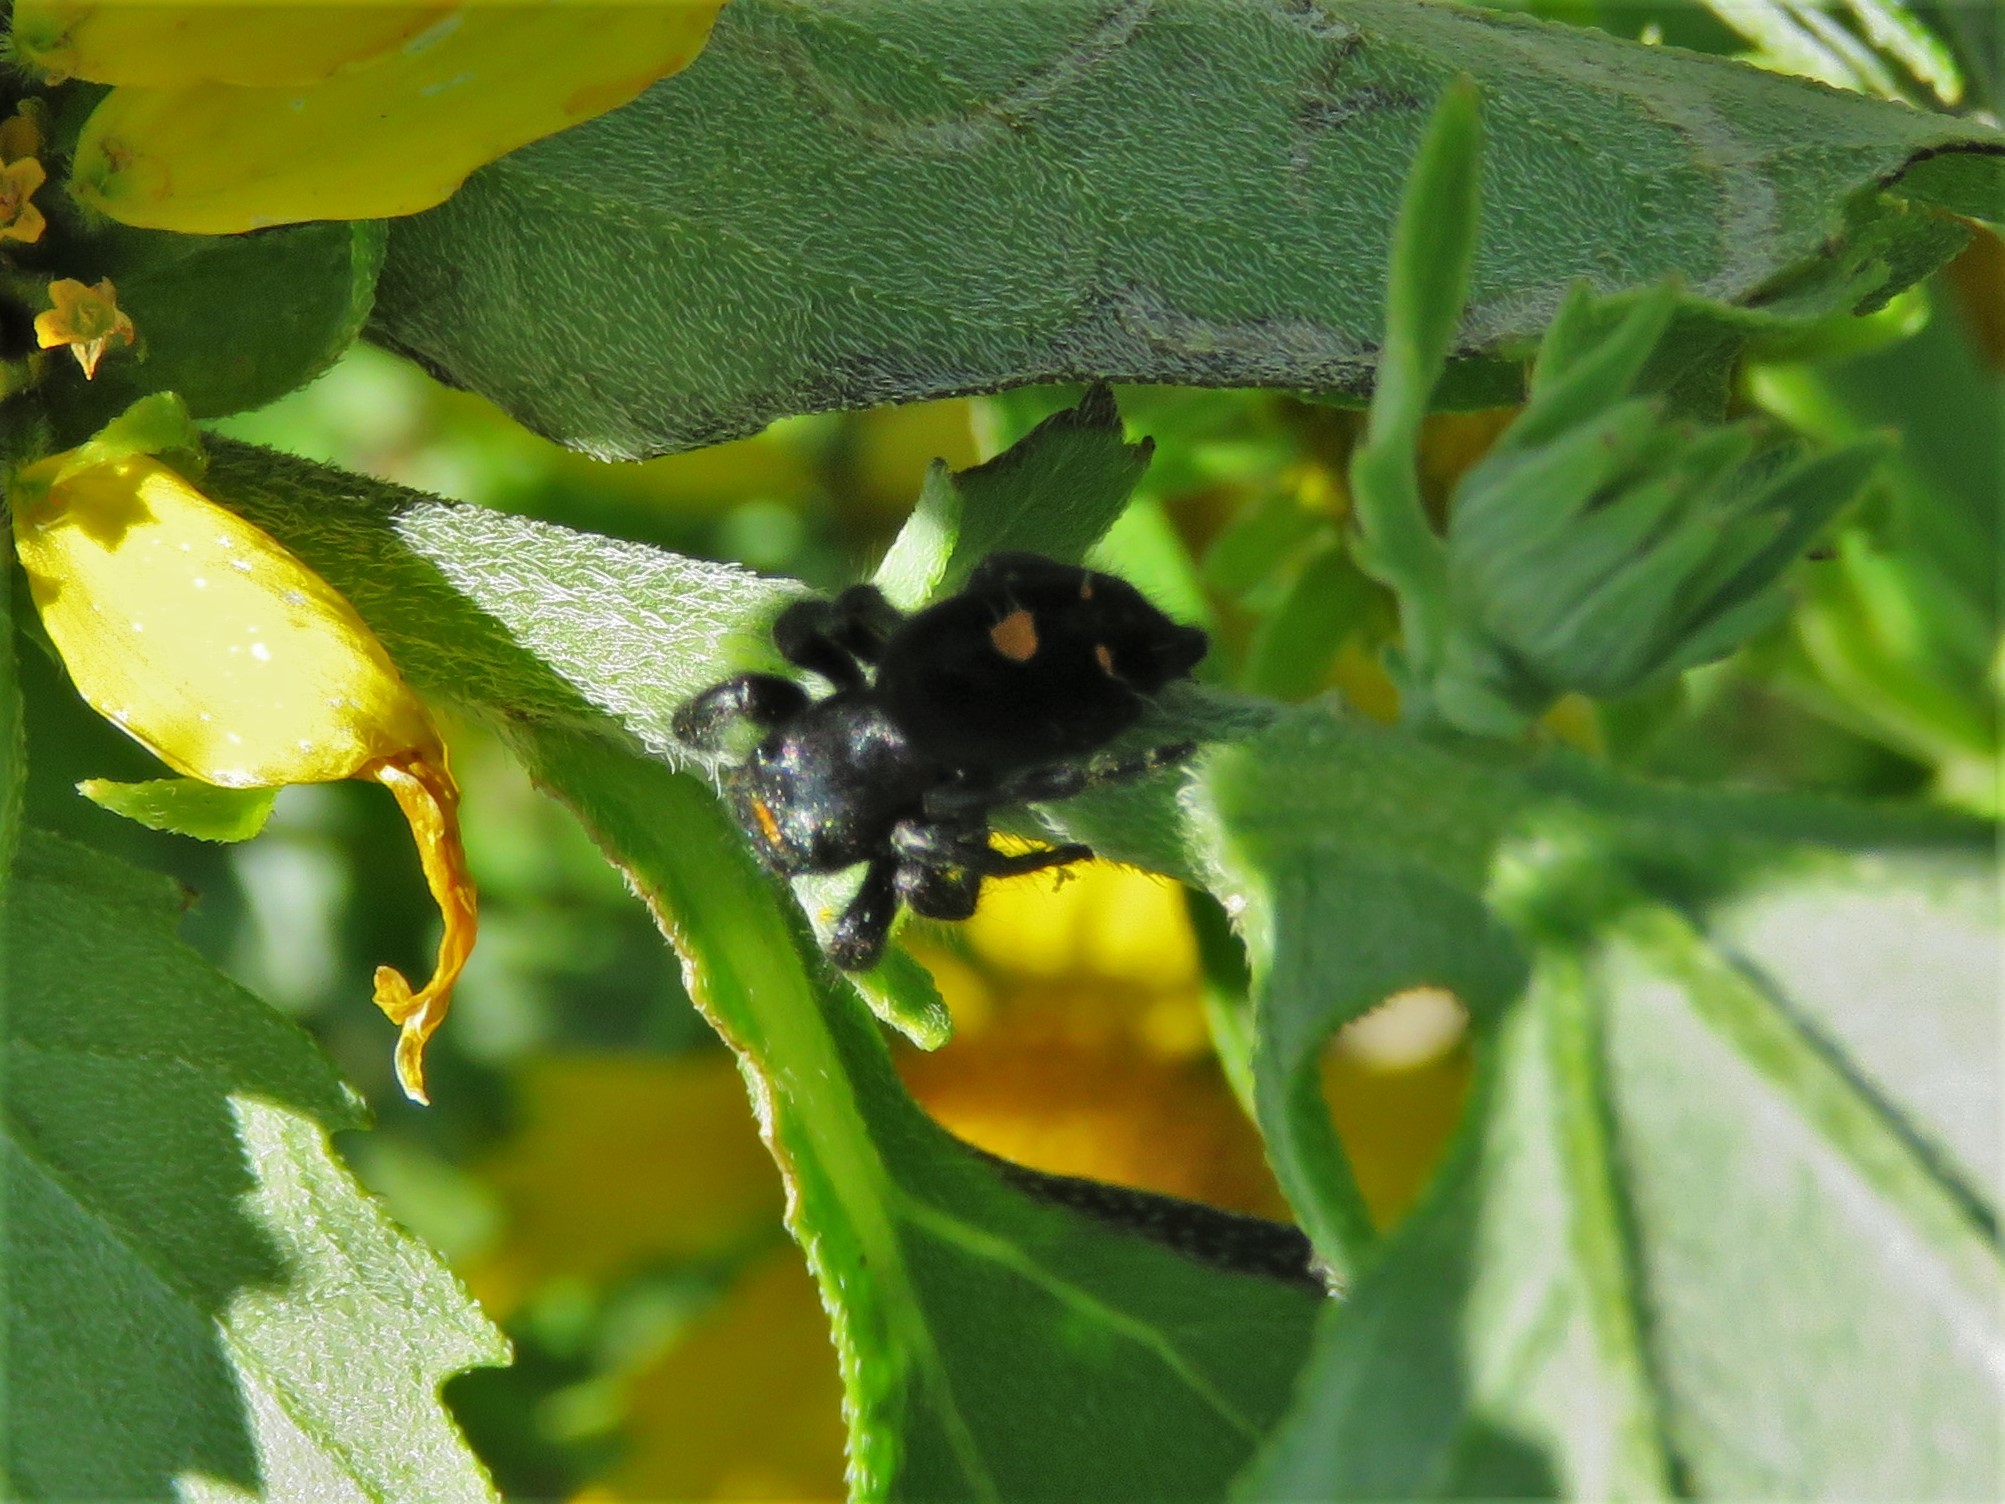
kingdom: Animalia
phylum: Arthropoda
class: Arachnida
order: Araneae
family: Salticidae
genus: Phidippus
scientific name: Phidippus audax
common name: Bold jumper
